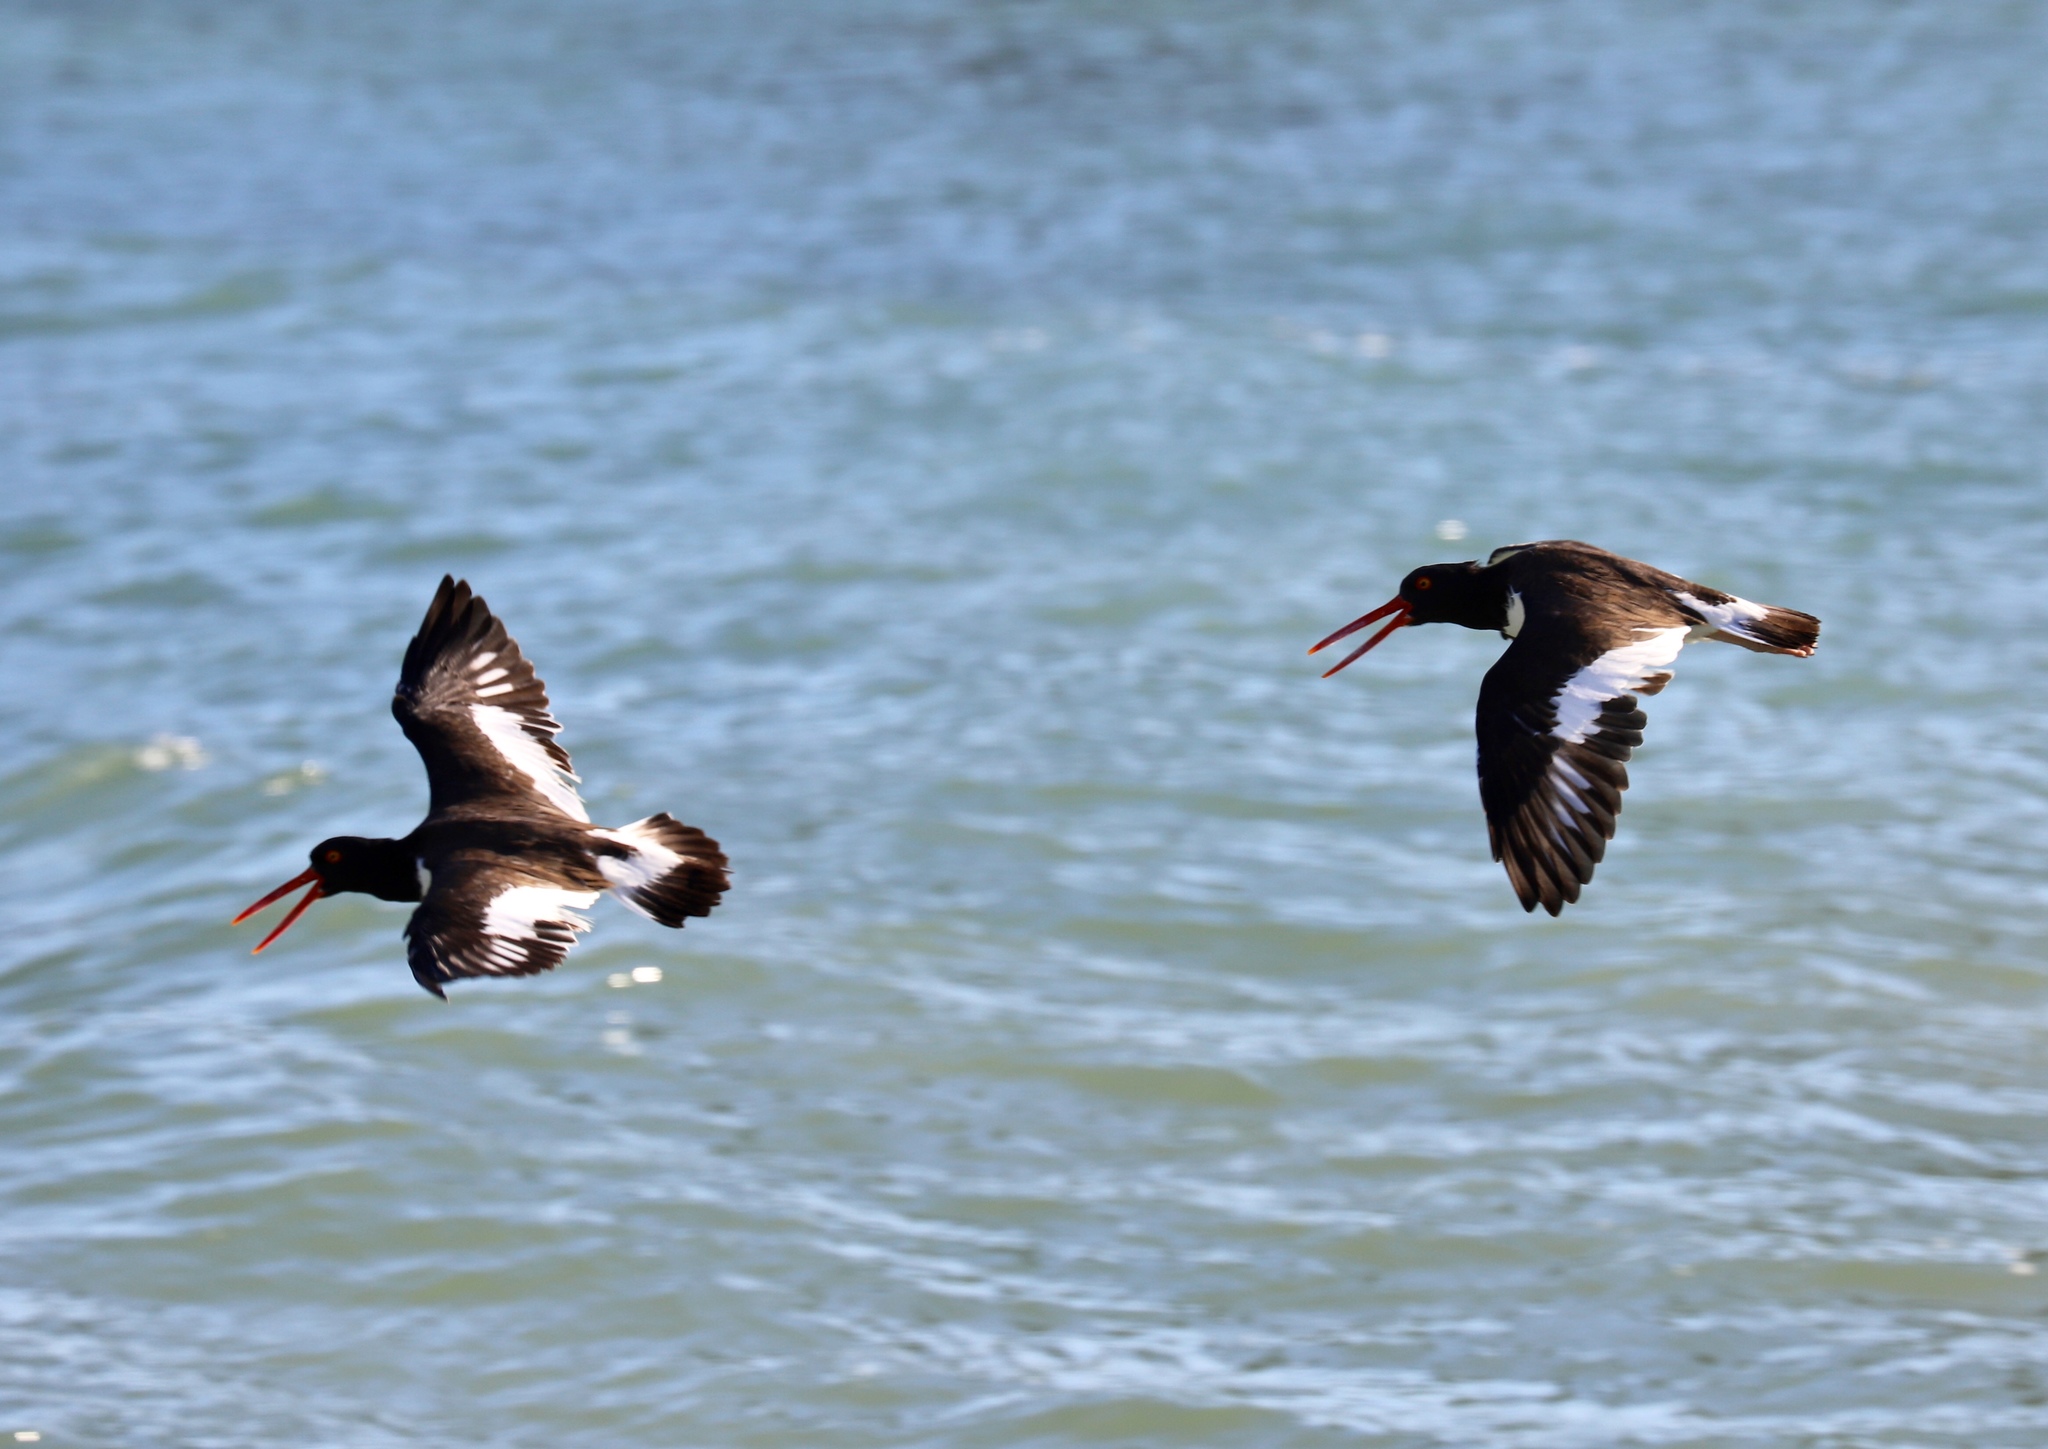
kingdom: Animalia
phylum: Chordata
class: Aves
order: Charadriiformes
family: Haematopodidae
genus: Haematopus
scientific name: Haematopus palliatus
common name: American oystercatcher
